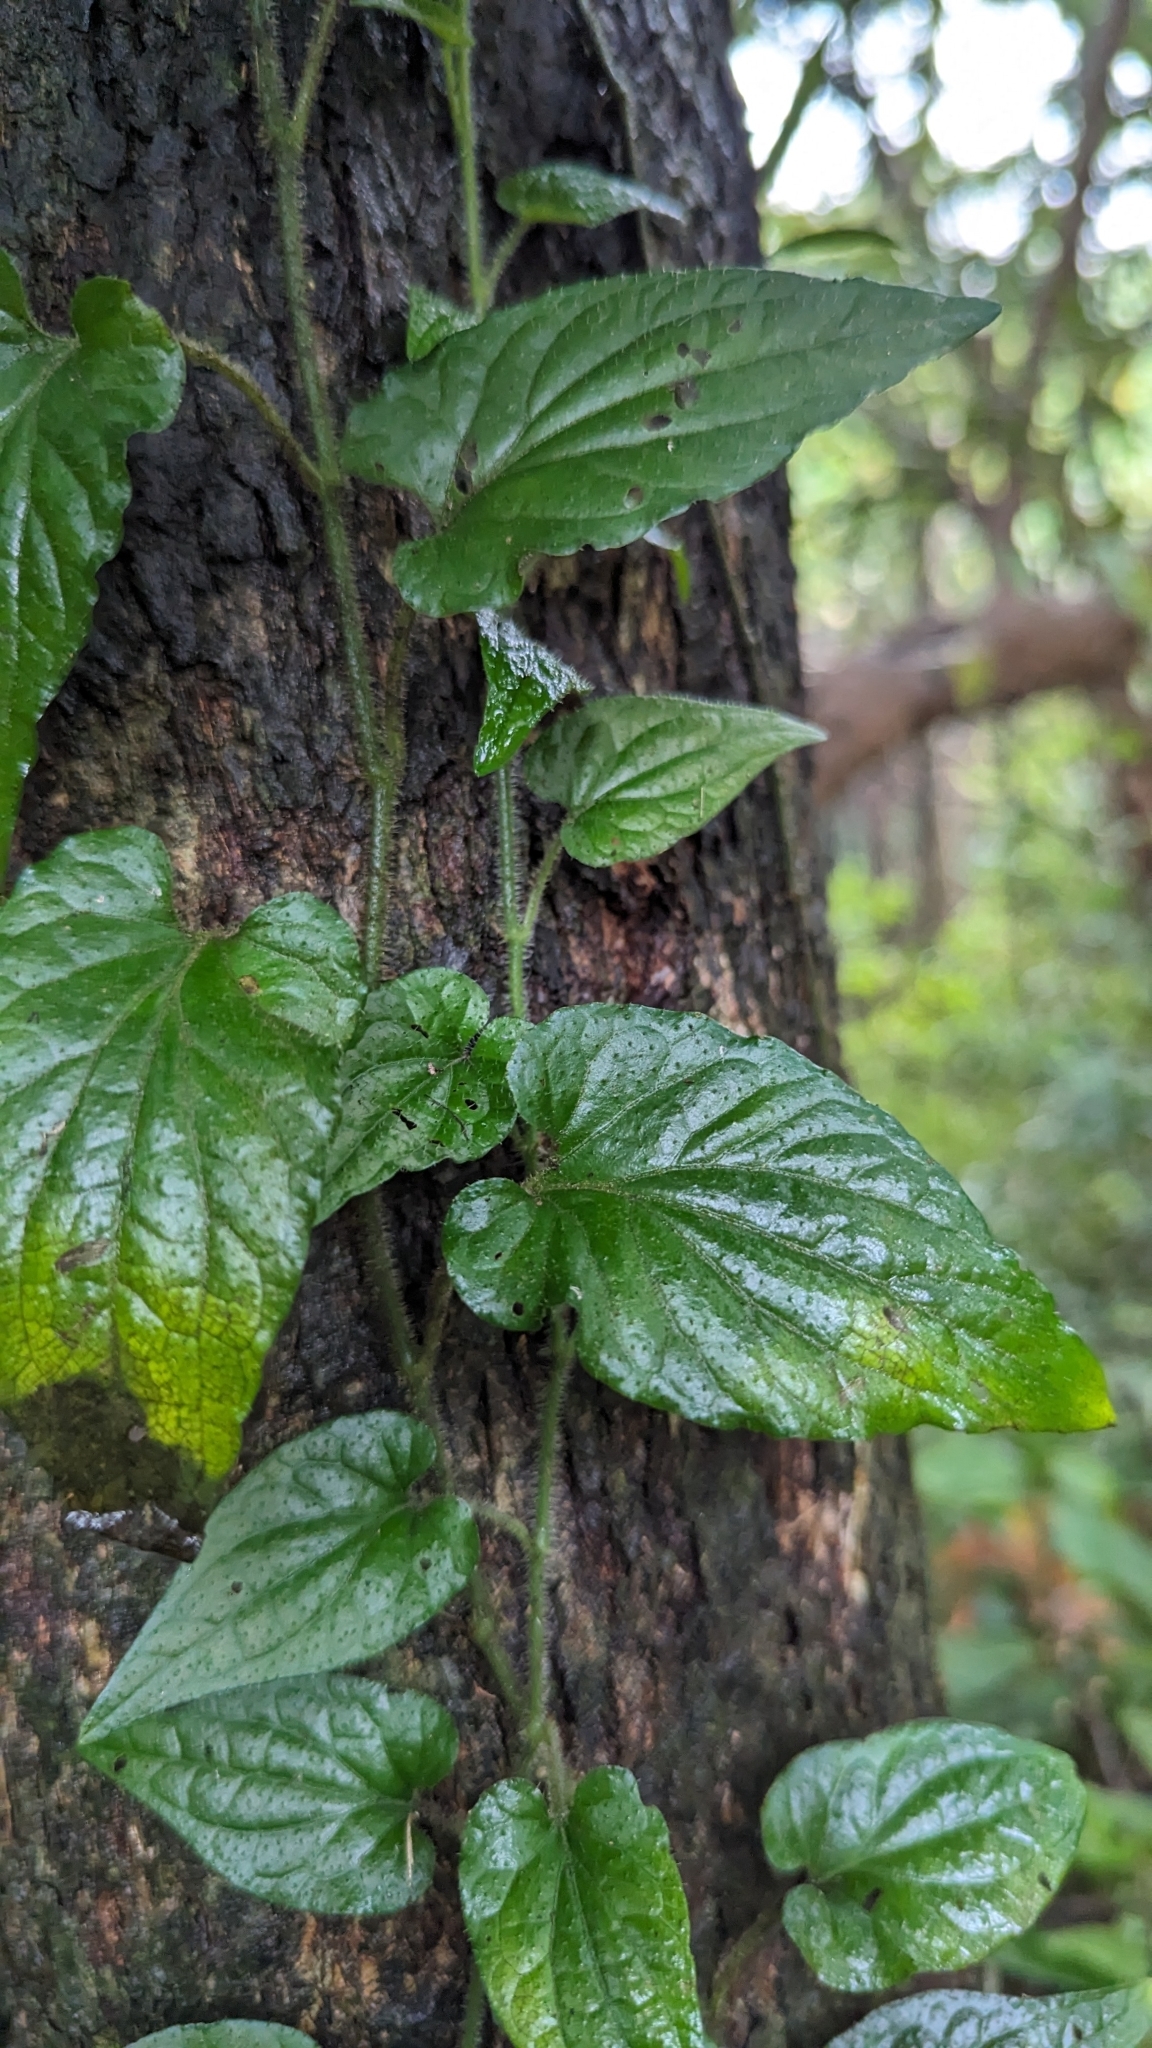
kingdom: Plantae
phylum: Tracheophyta
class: Magnoliopsida
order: Piperales
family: Piperaceae
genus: Piper
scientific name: Piper sintenense
